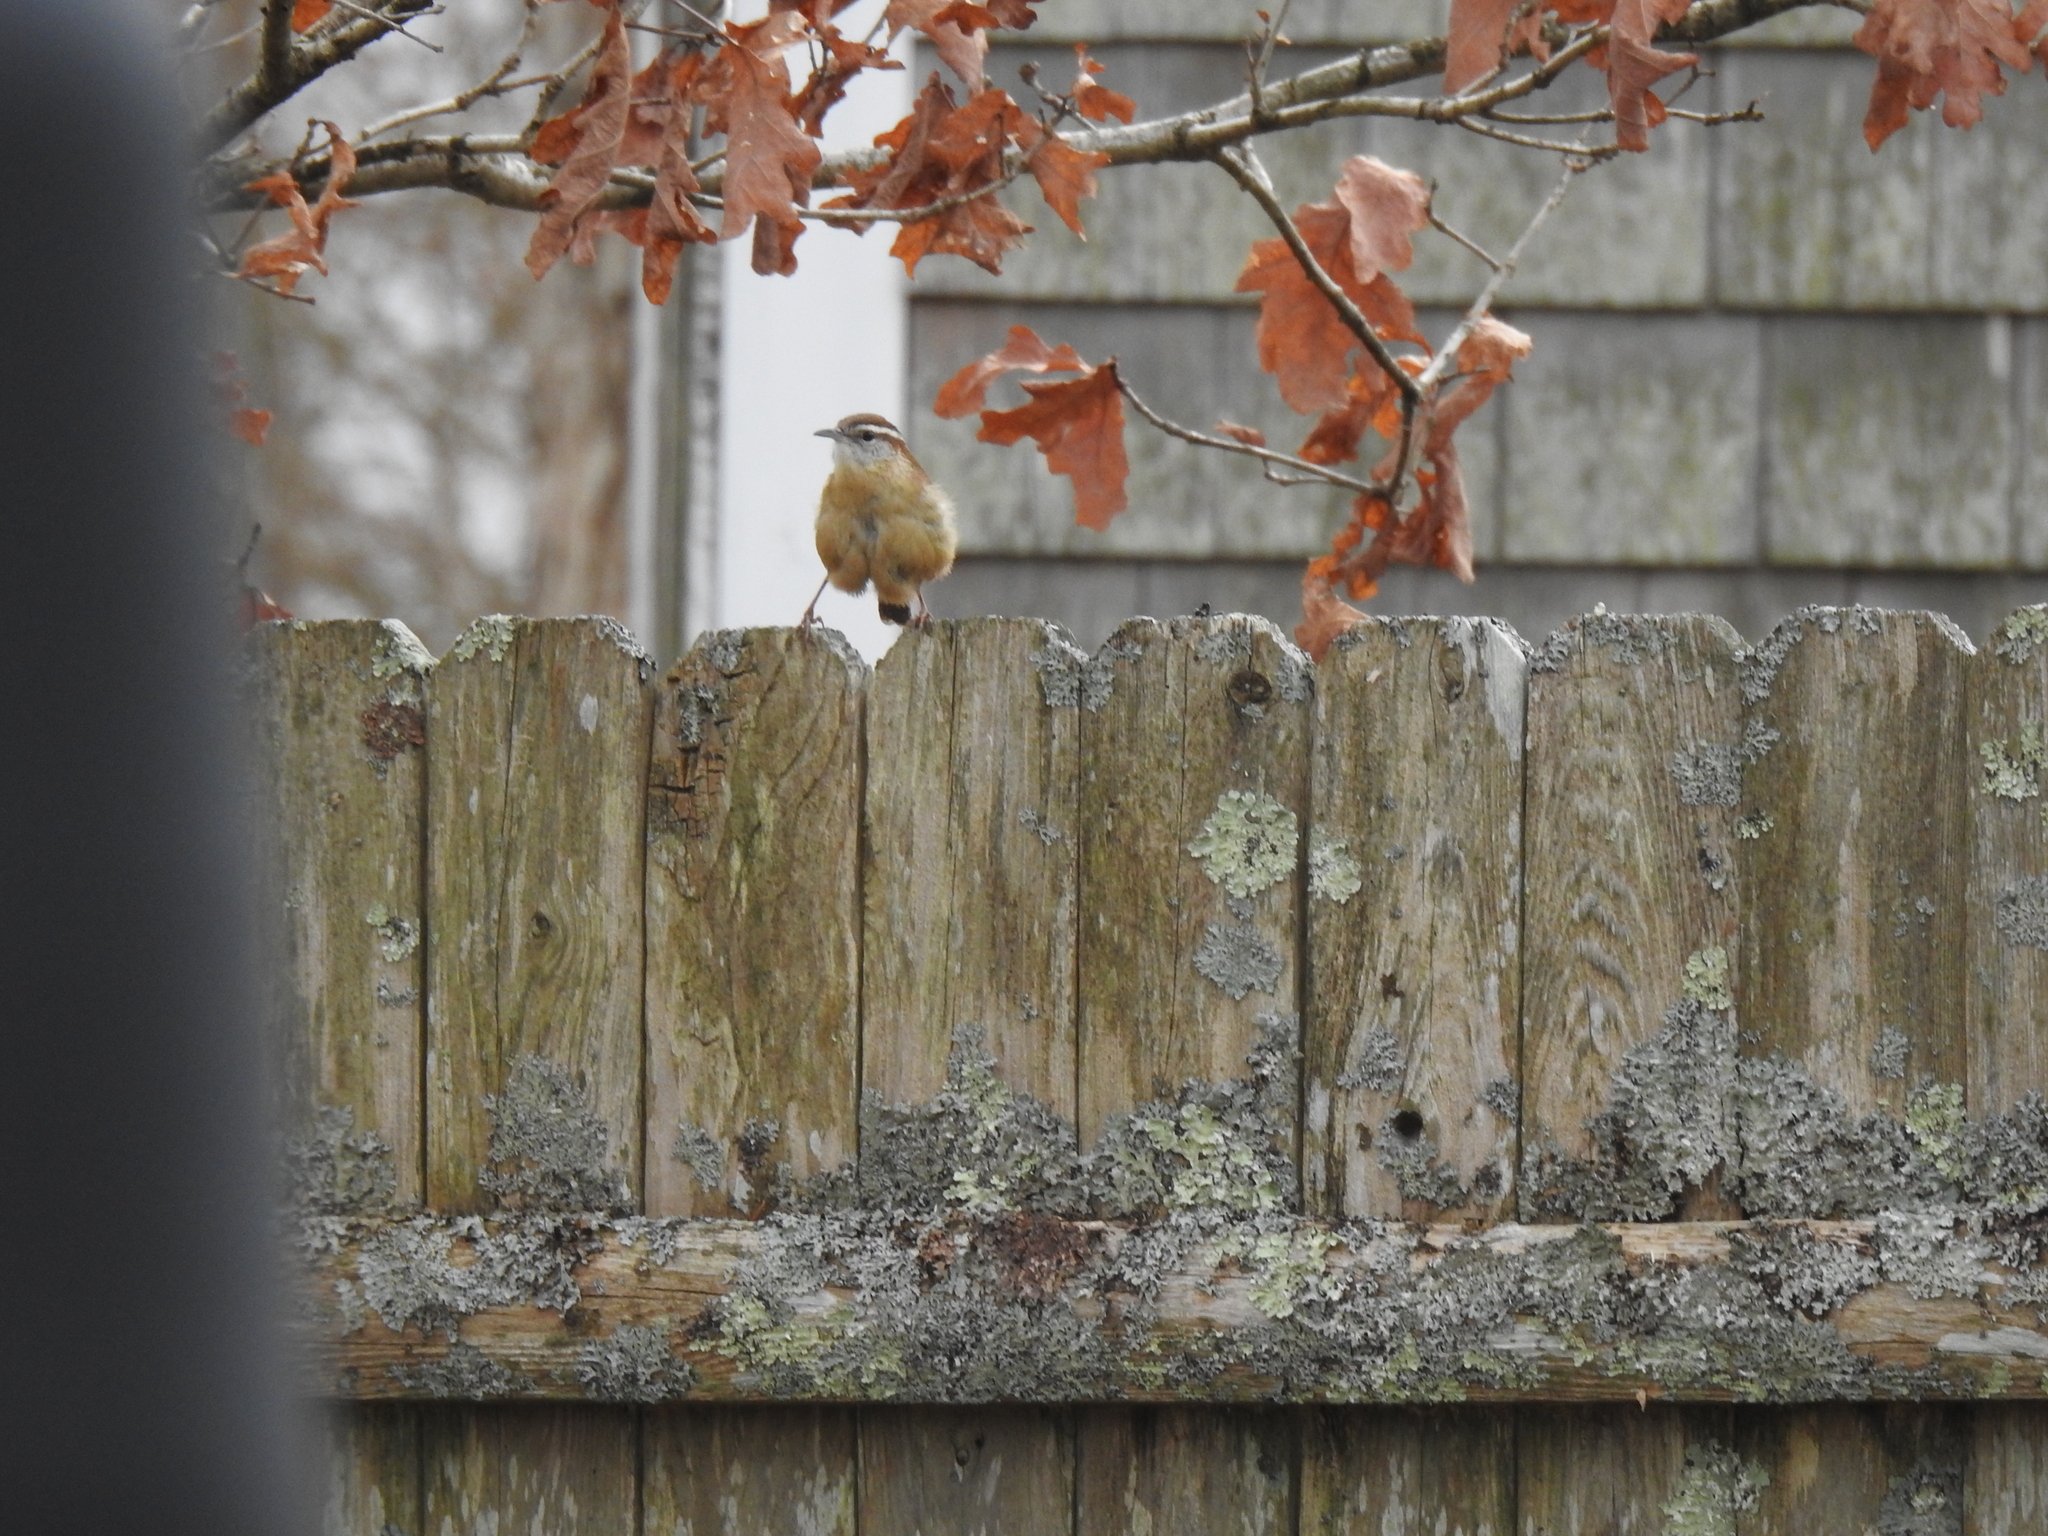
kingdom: Animalia
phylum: Chordata
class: Aves
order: Passeriformes
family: Troglodytidae
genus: Thryothorus
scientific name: Thryothorus ludovicianus
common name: Carolina wren
